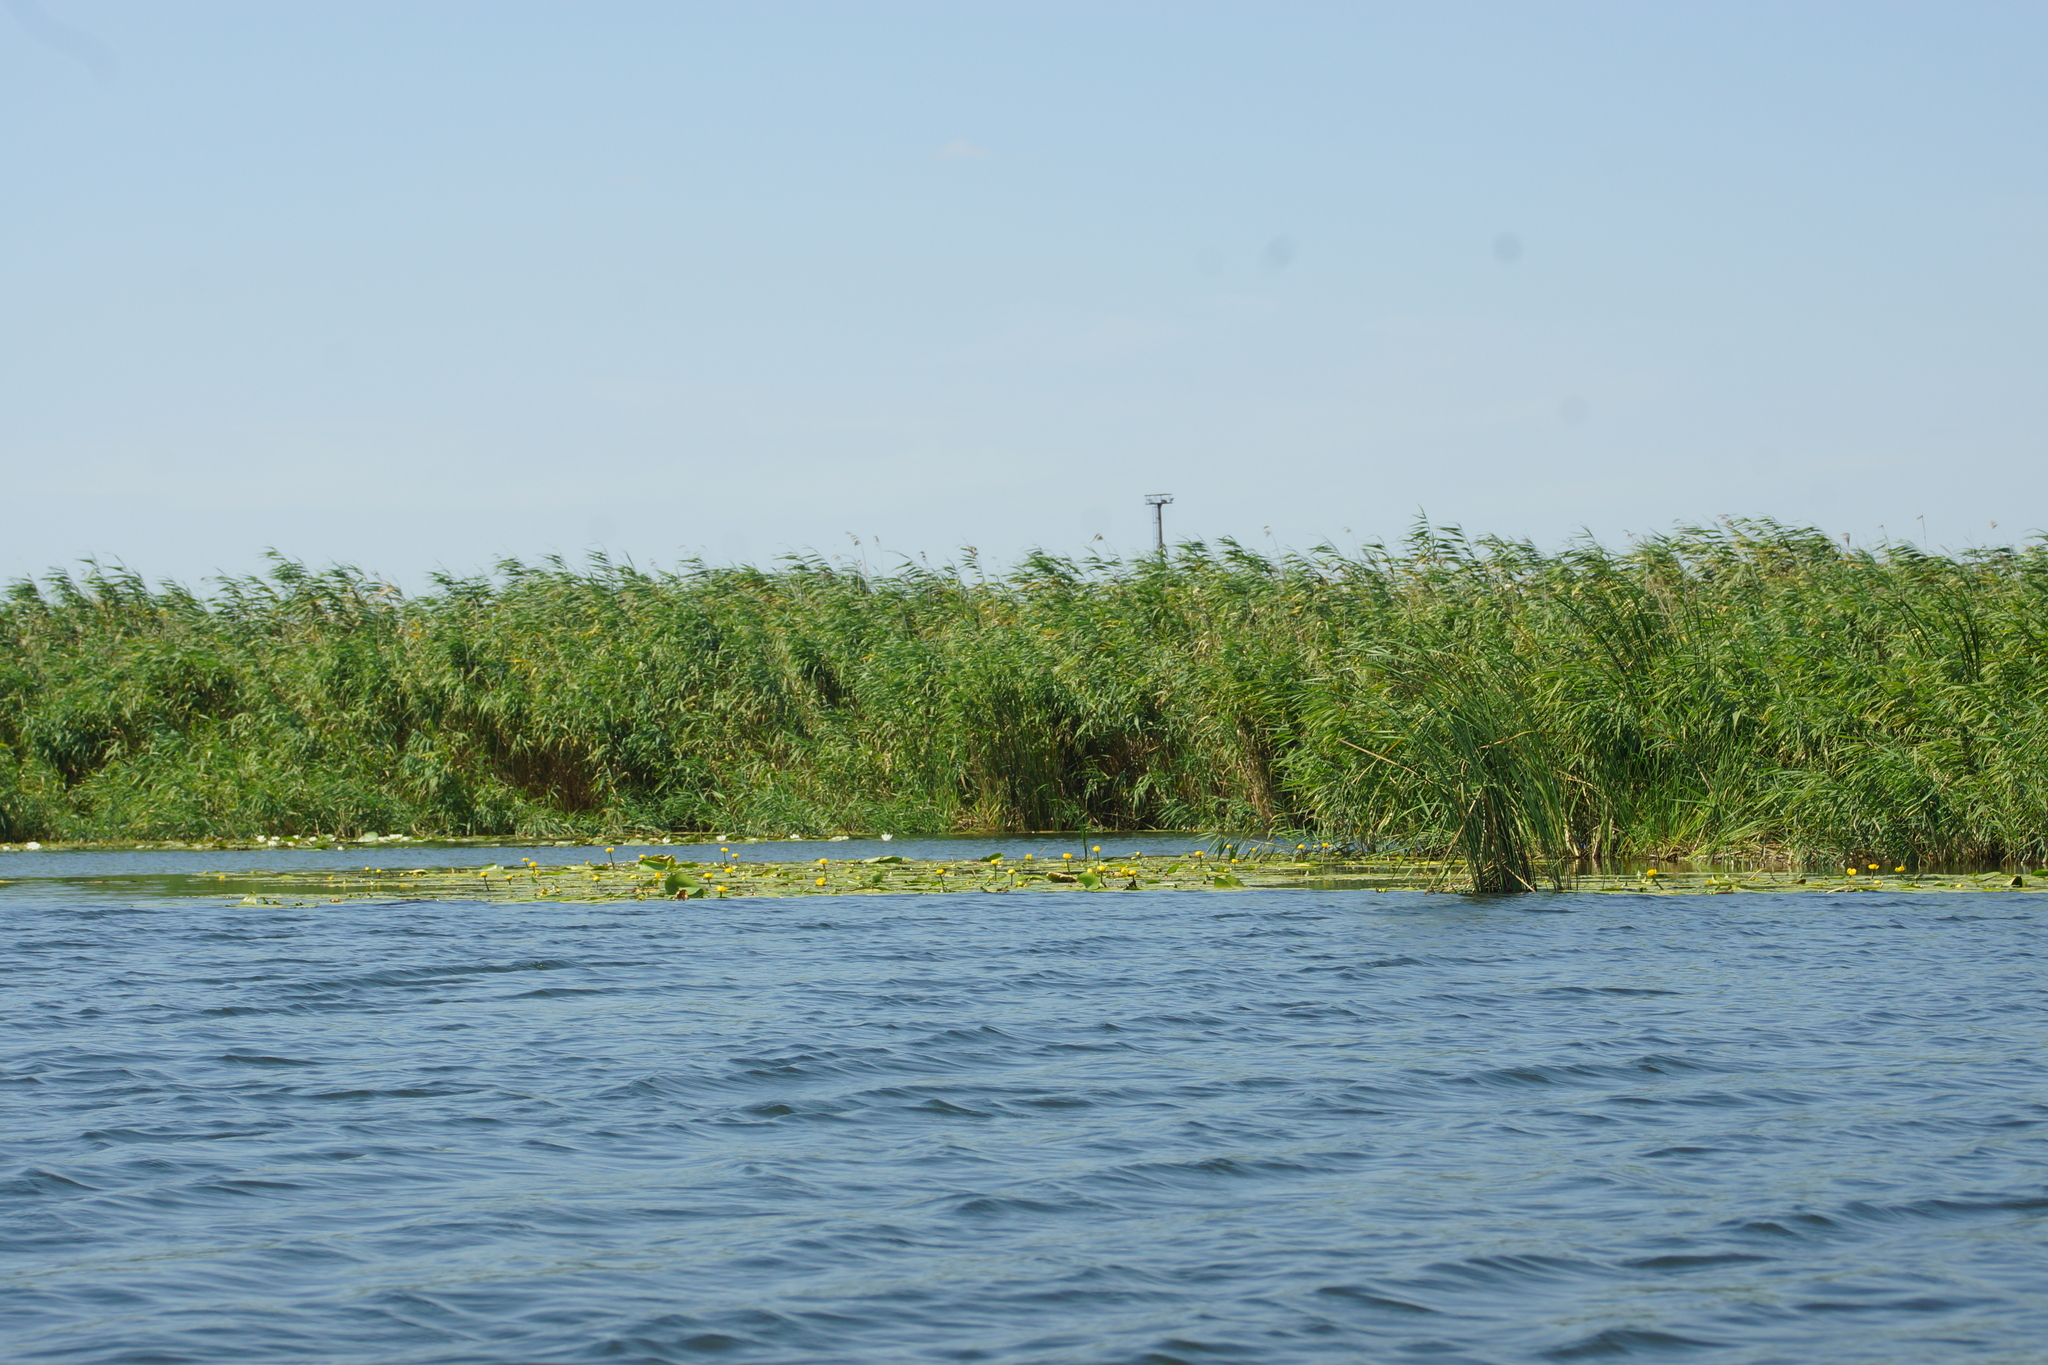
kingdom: Plantae
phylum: Tracheophyta
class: Magnoliopsida
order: Nymphaeales
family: Nymphaeaceae
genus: Nuphar
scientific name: Nuphar lutea
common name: Yellow water-lily
